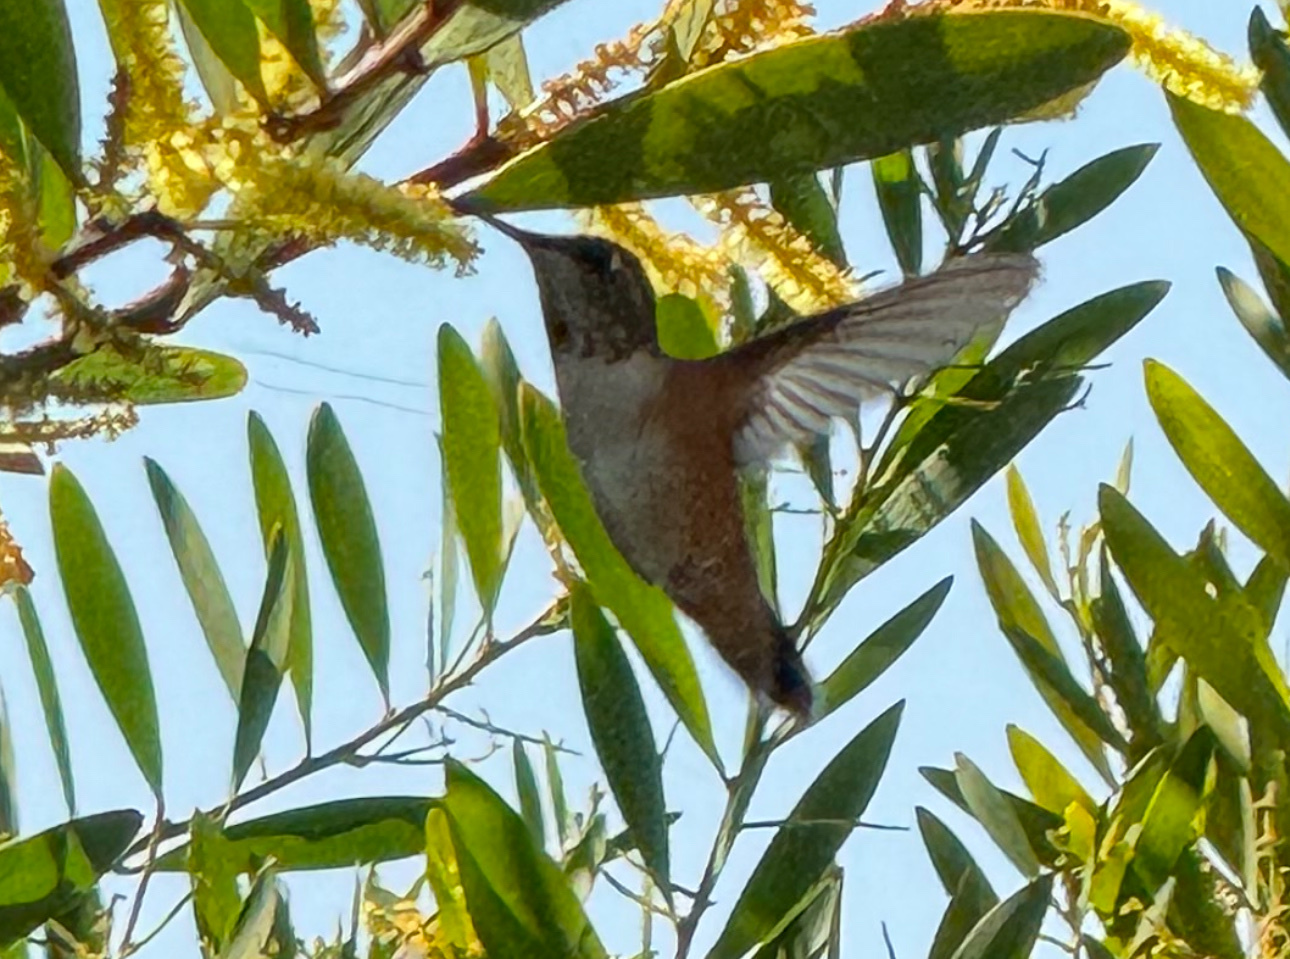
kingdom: Animalia
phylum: Chordata
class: Aves
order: Apodiformes
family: Trochilidae
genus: Selasphorus
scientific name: Selasphorus sasin
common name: Allen's hummingbird
